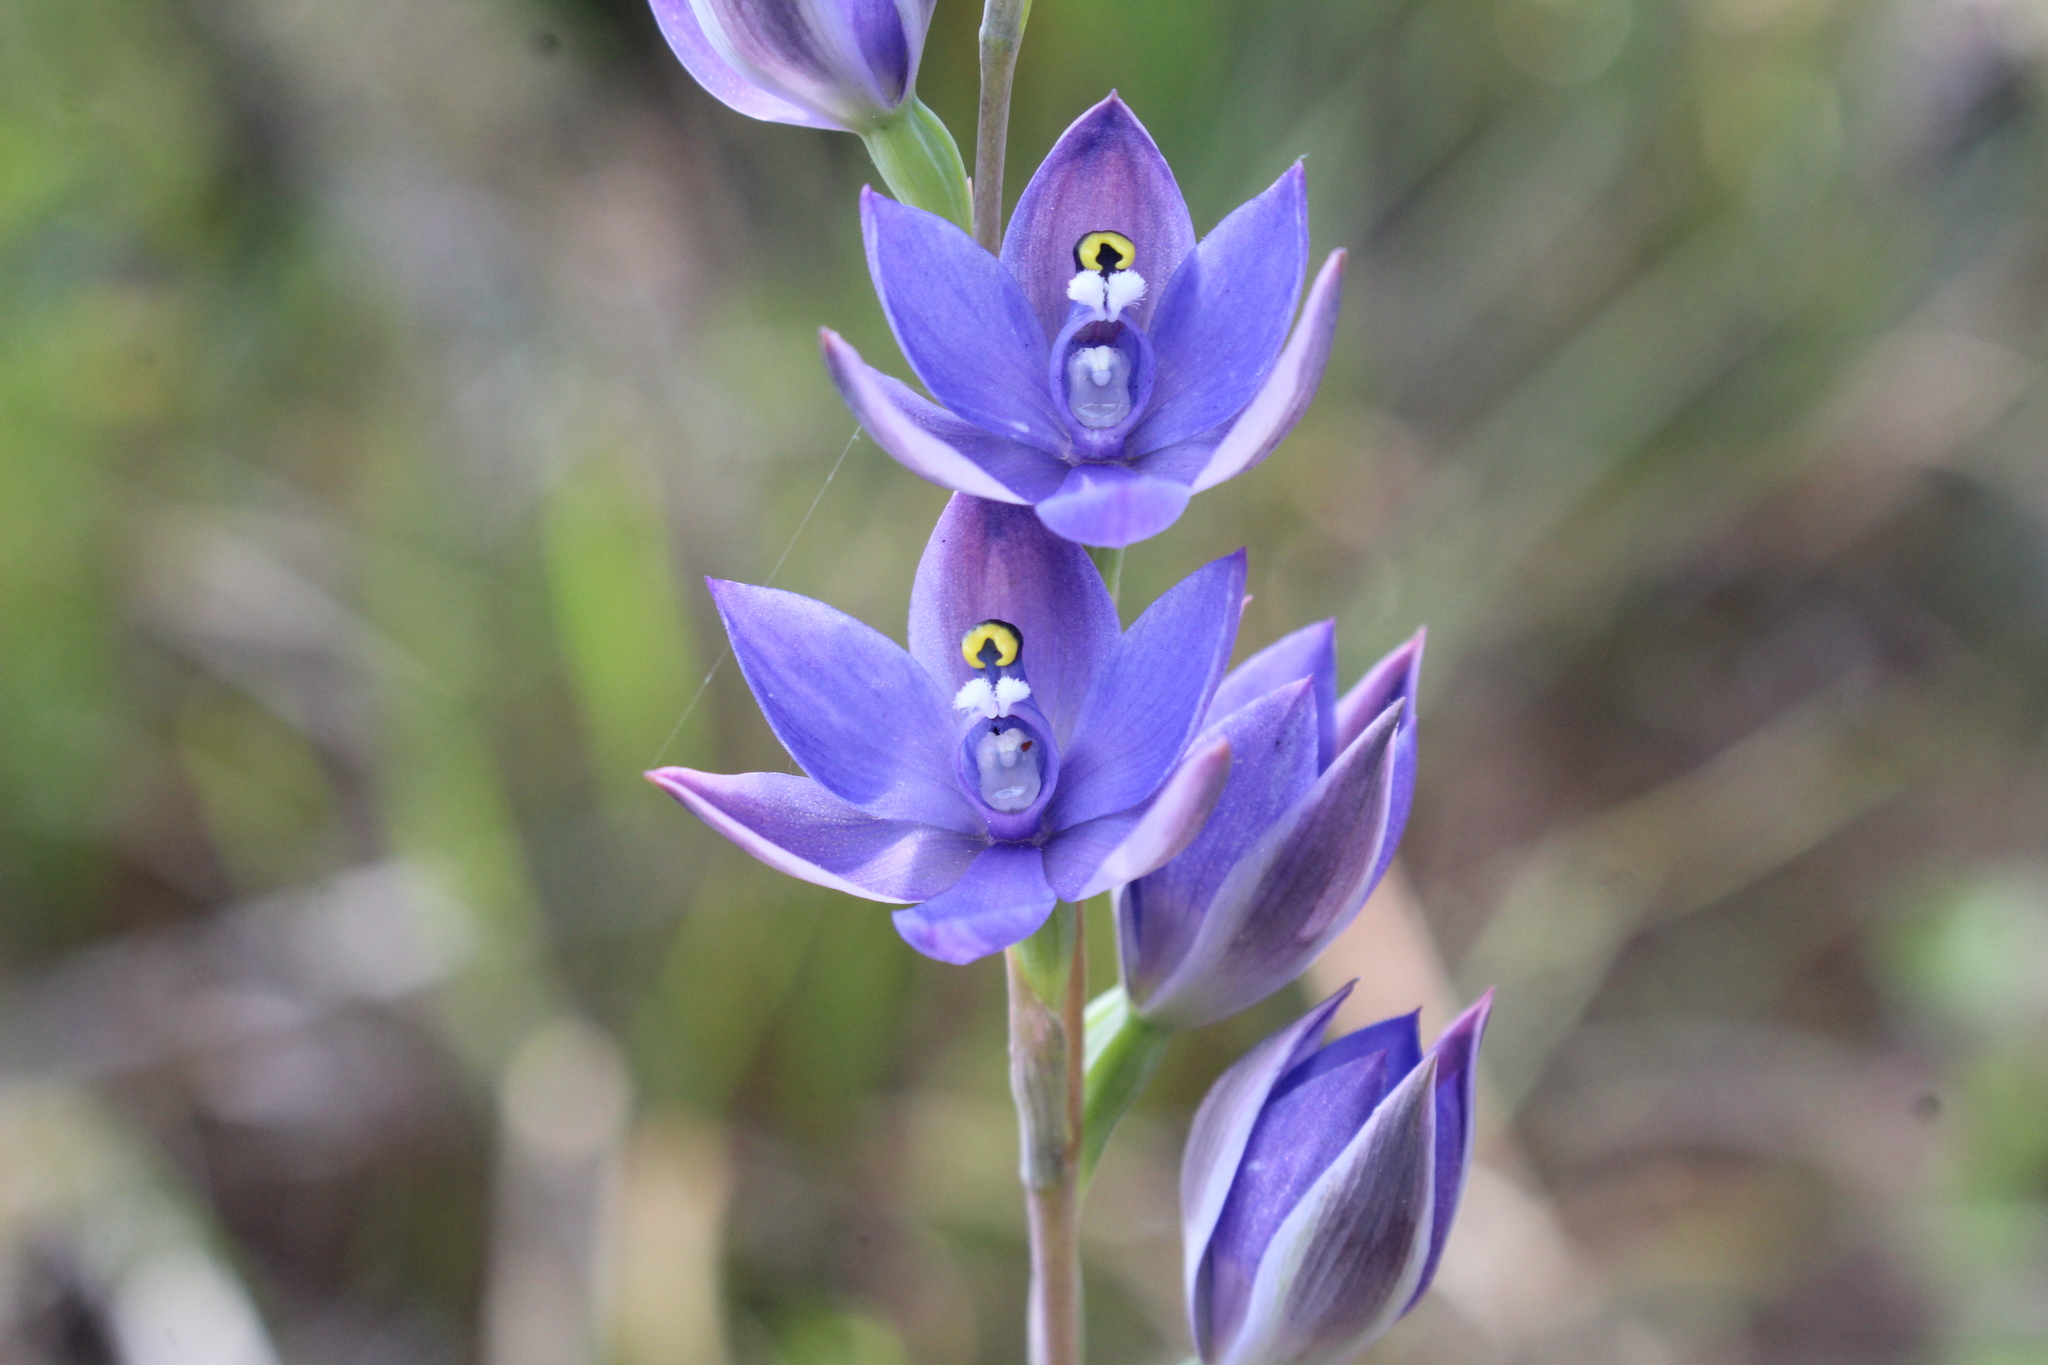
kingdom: Plantae
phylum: Tracheophyta
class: Liliopsida
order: Asparagales
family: Orchidaceae
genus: Thelymitra
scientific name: Thelymitra paludosa
